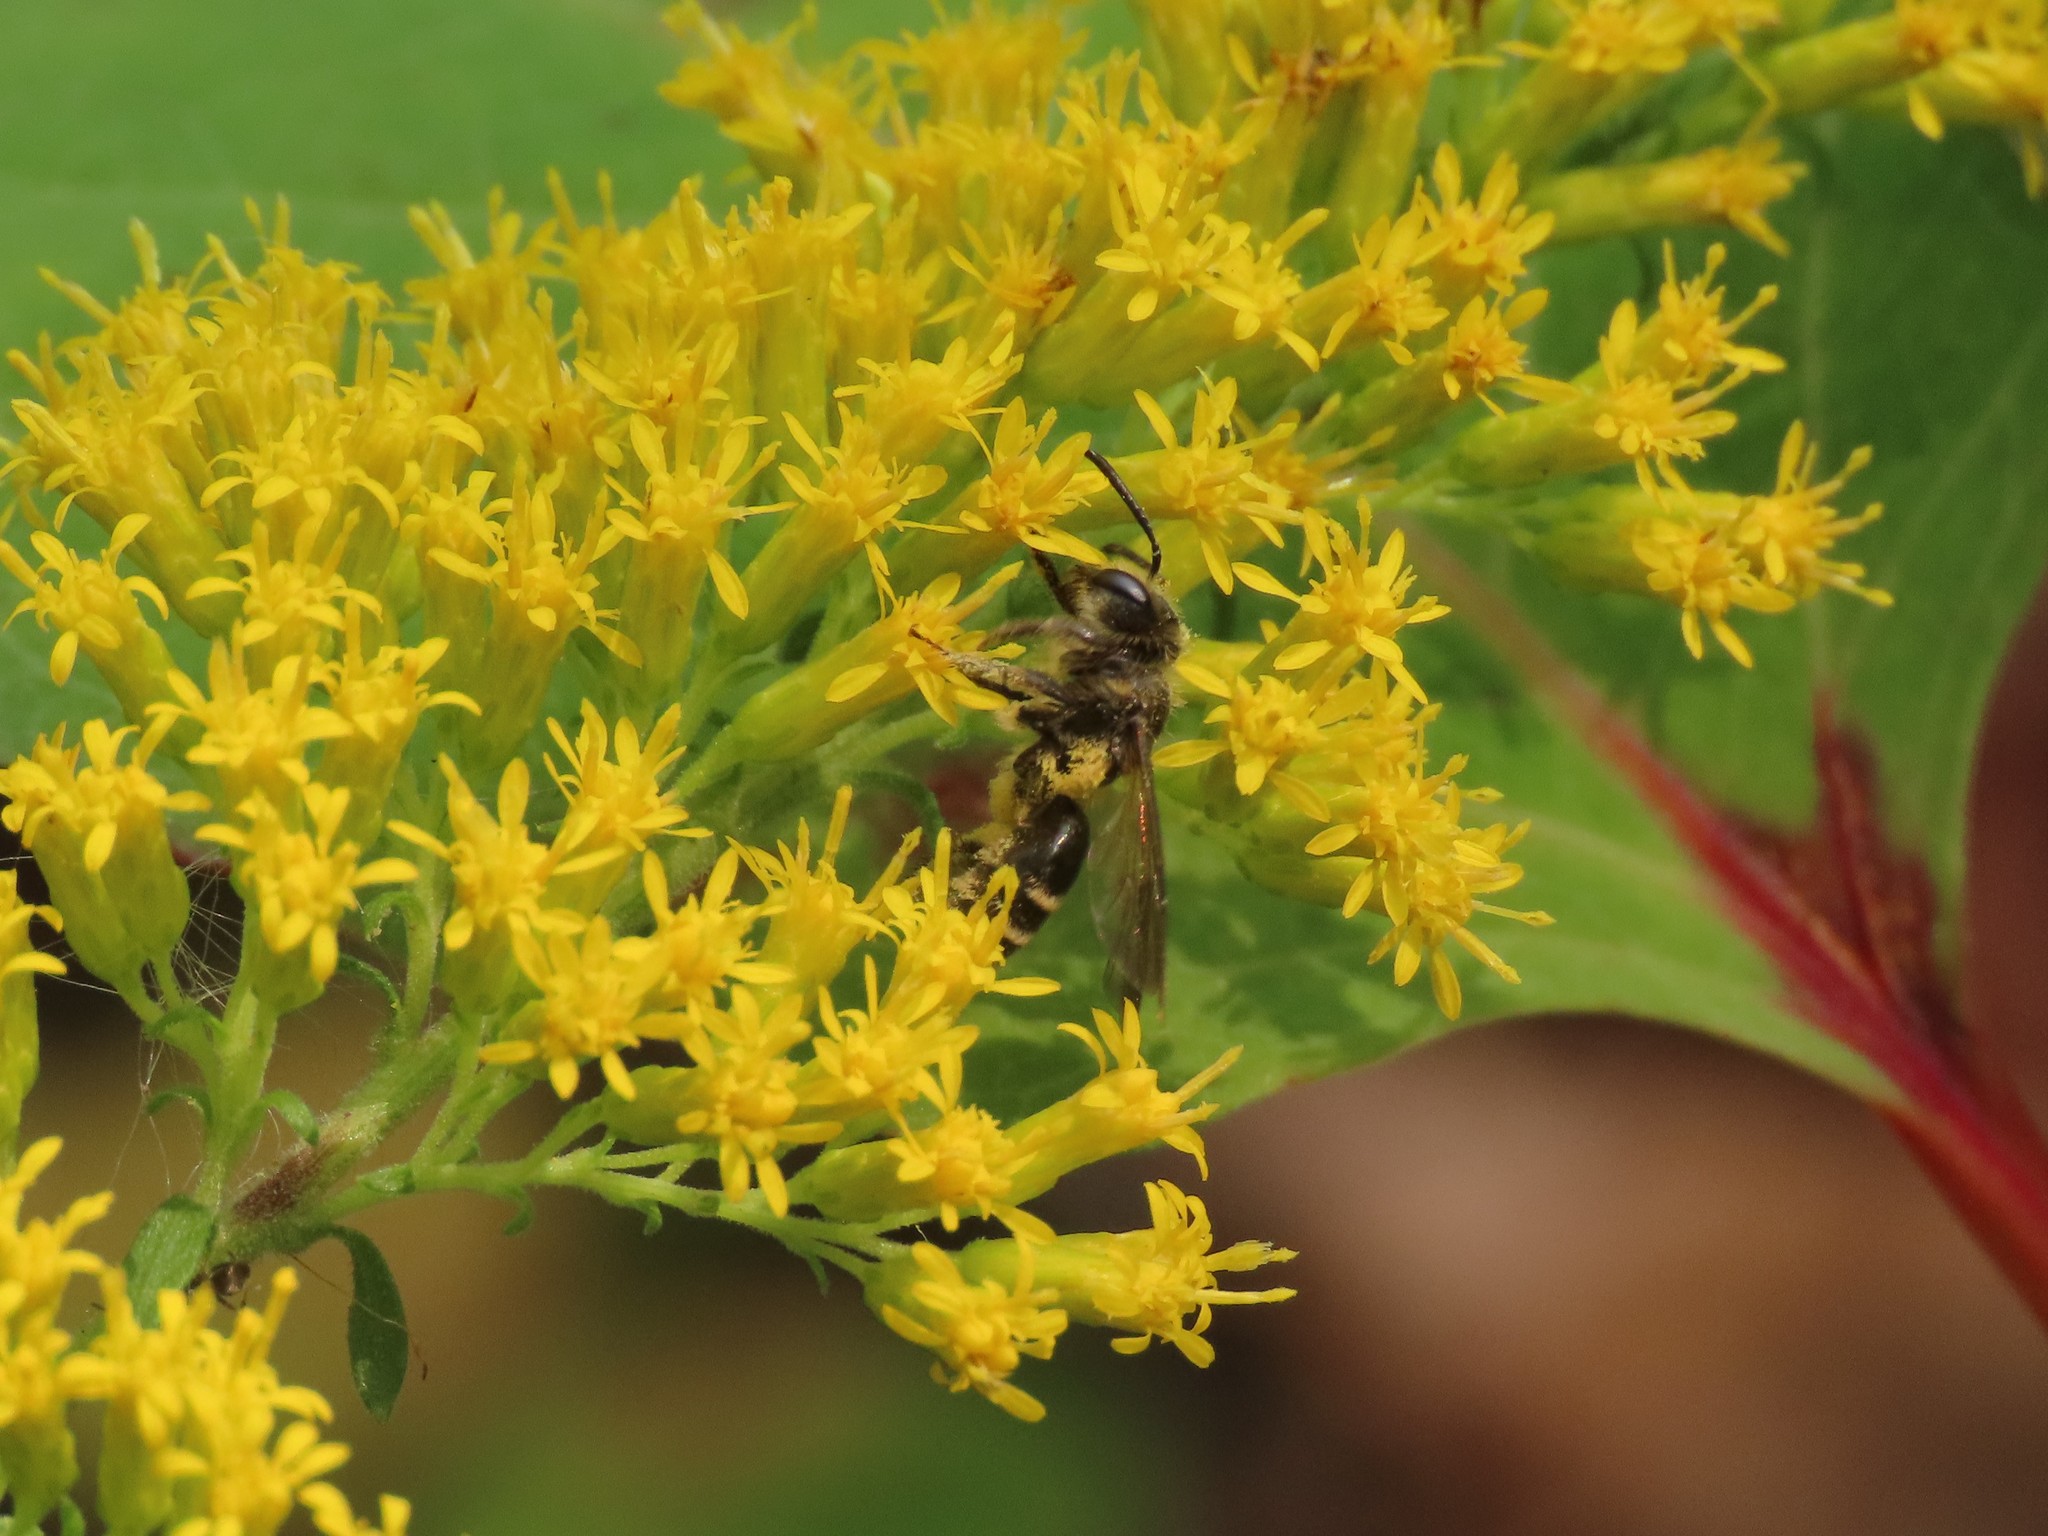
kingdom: Animalia
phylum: Arthropoda
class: Insecta
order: Hymenoptera
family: Andrenidae
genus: Andrena
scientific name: Andrena nubecula
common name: Cloudy-winged mining bee
